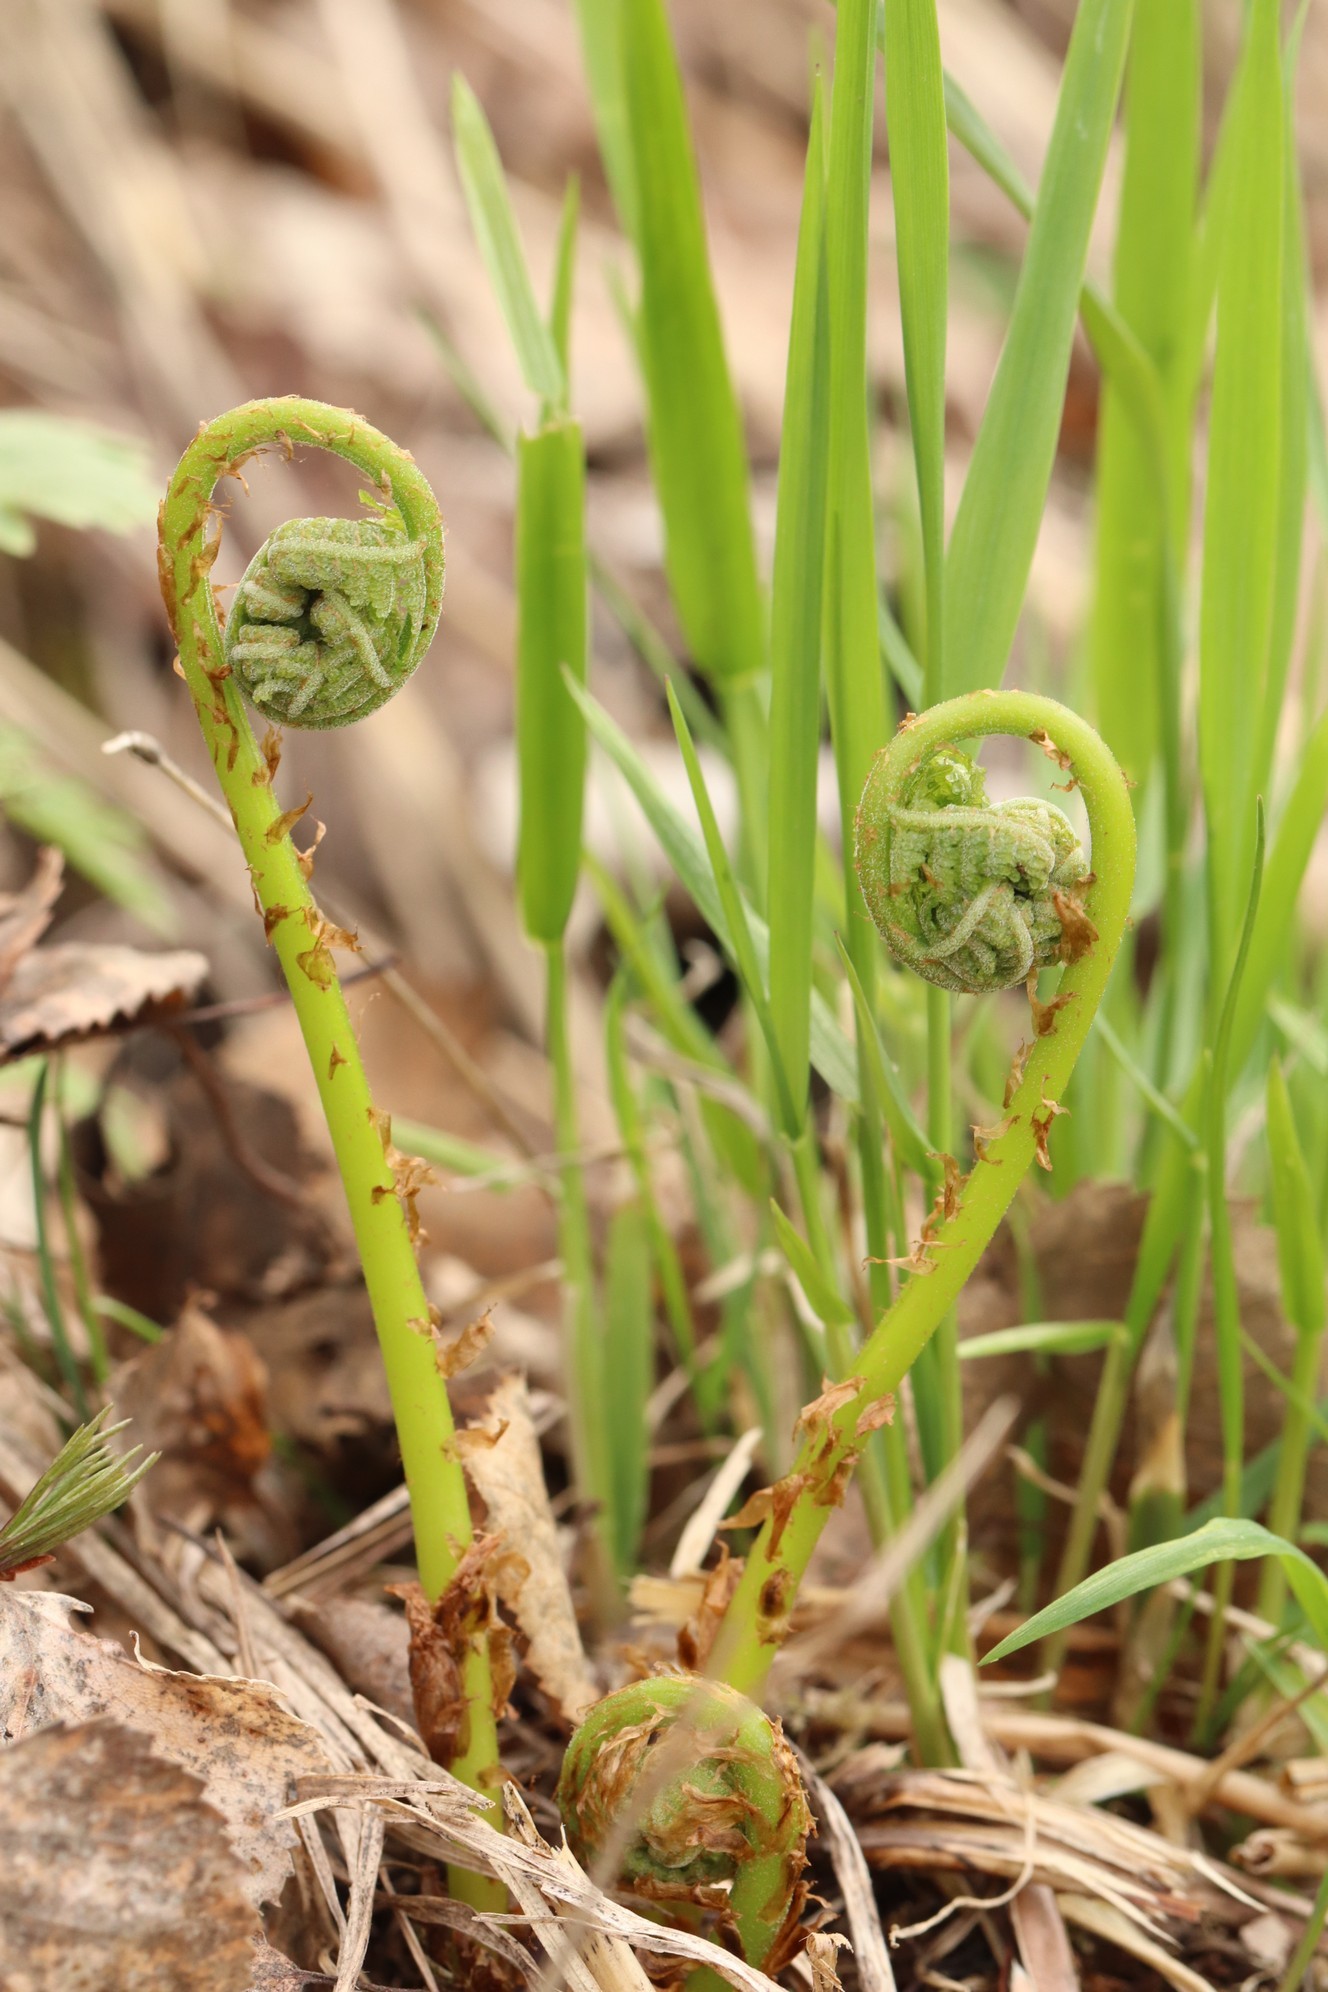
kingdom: Plantae
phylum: Tracheophyta
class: Polypodiopsida
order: Polypodiales
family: Athyriaceae
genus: Athyrium
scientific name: Athyrium filix-femina
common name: Lady fern
